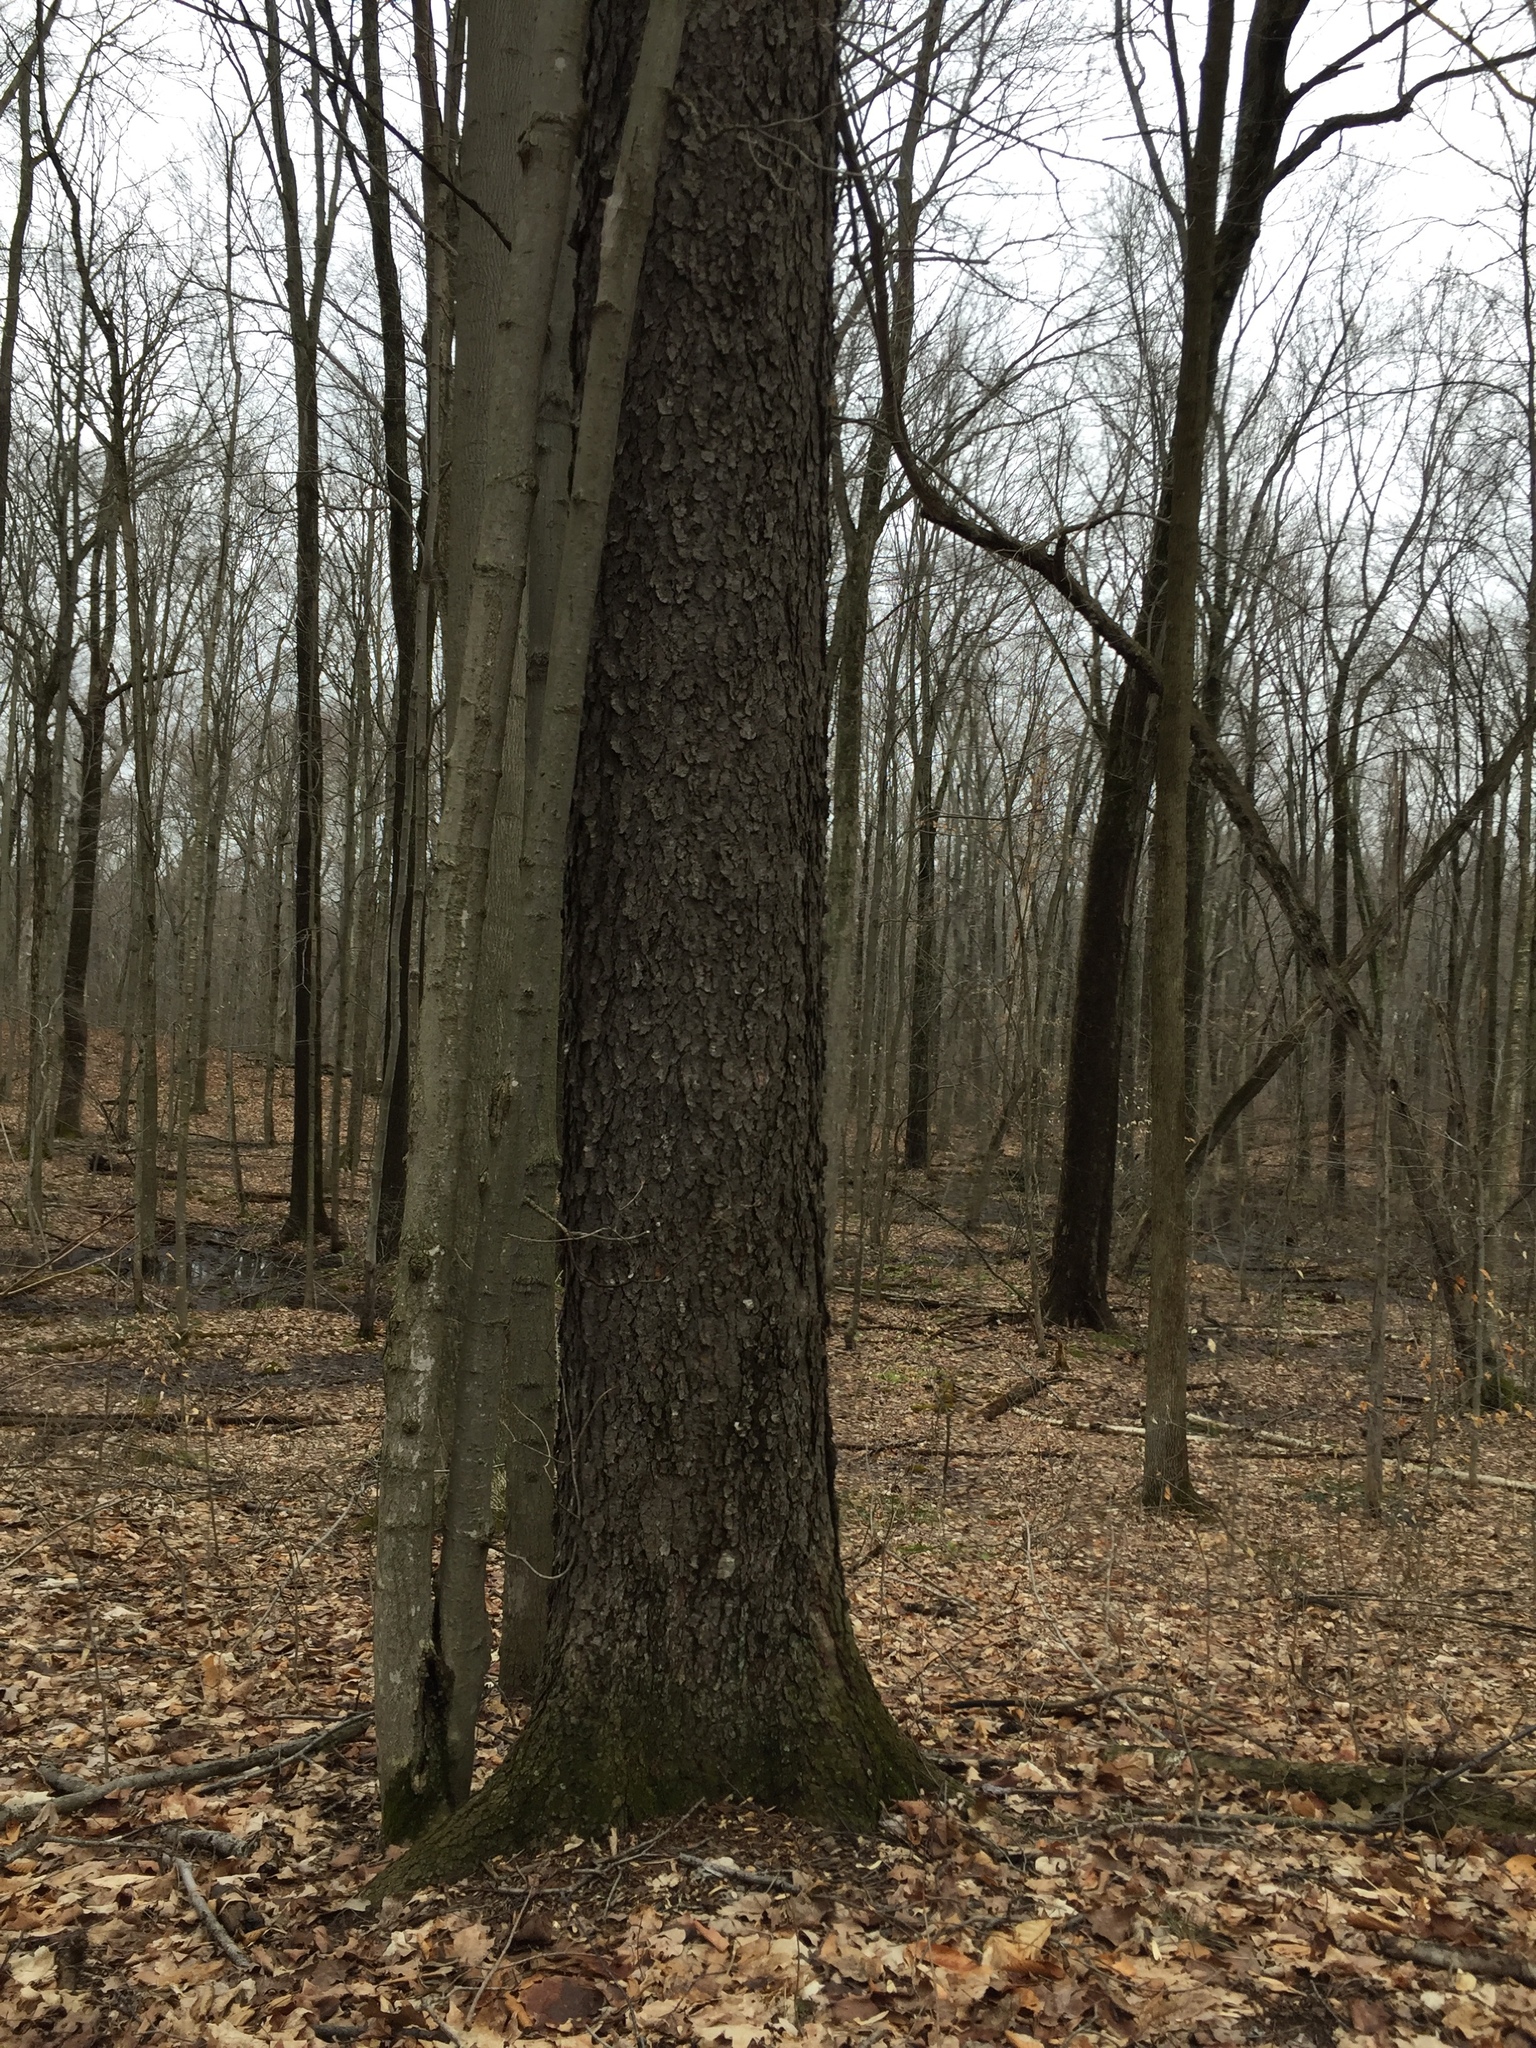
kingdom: Plantae
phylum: Tracheophyta
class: Magnoliopsida
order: Rosales
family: Rosaceae
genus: Prunus
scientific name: Prunus serotina
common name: Black cherry
